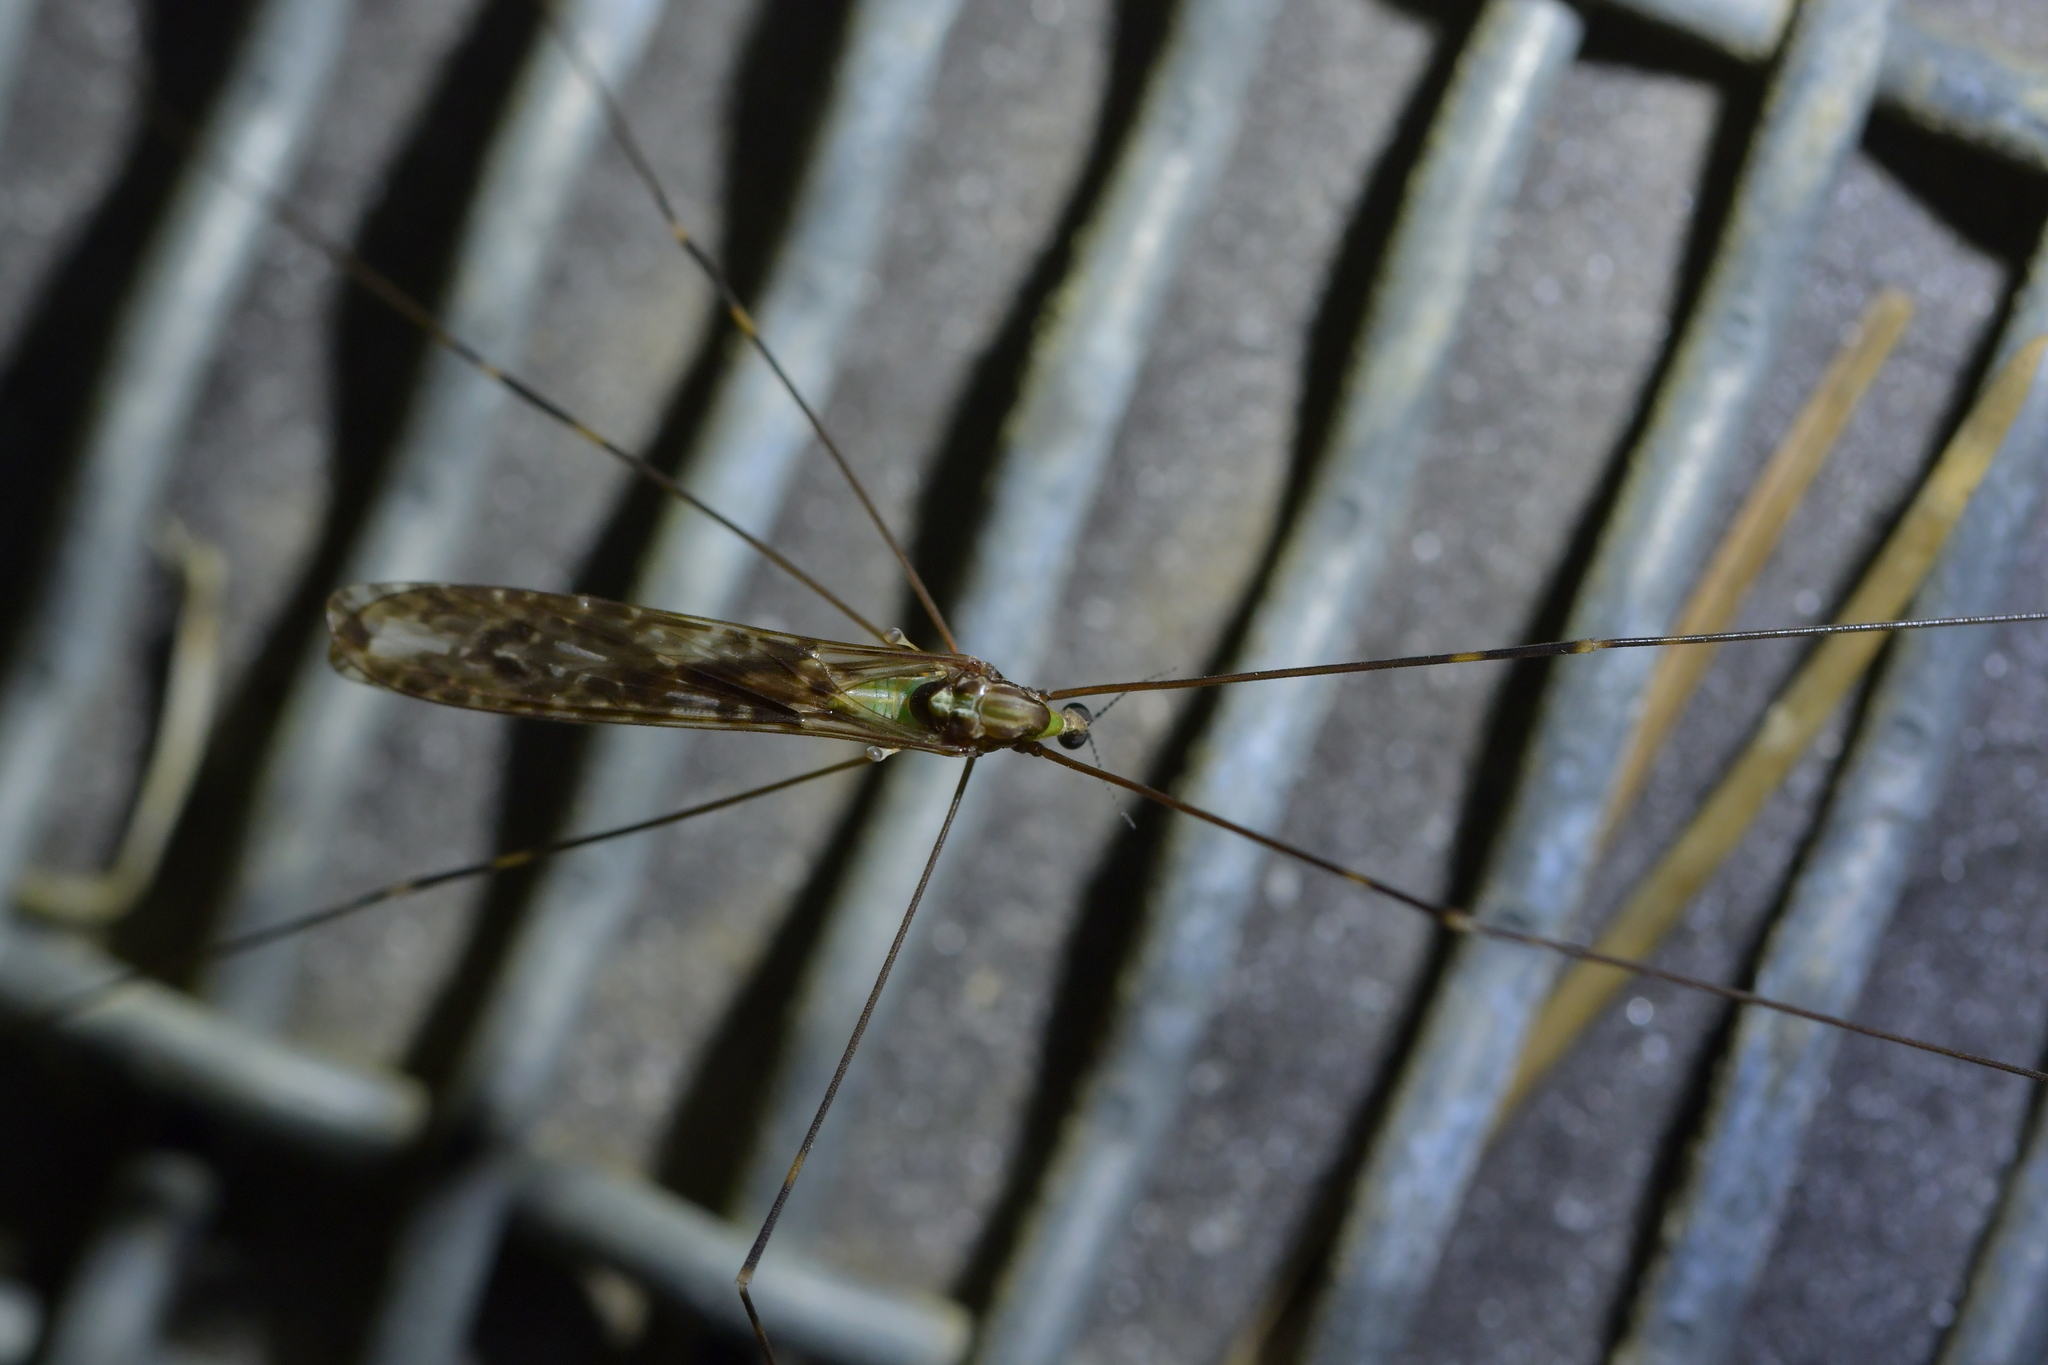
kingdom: Animalia
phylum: Arthropoda
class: Insecta
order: Diptera
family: Limoniidae
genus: Discobola
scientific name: Discobola dohrni
